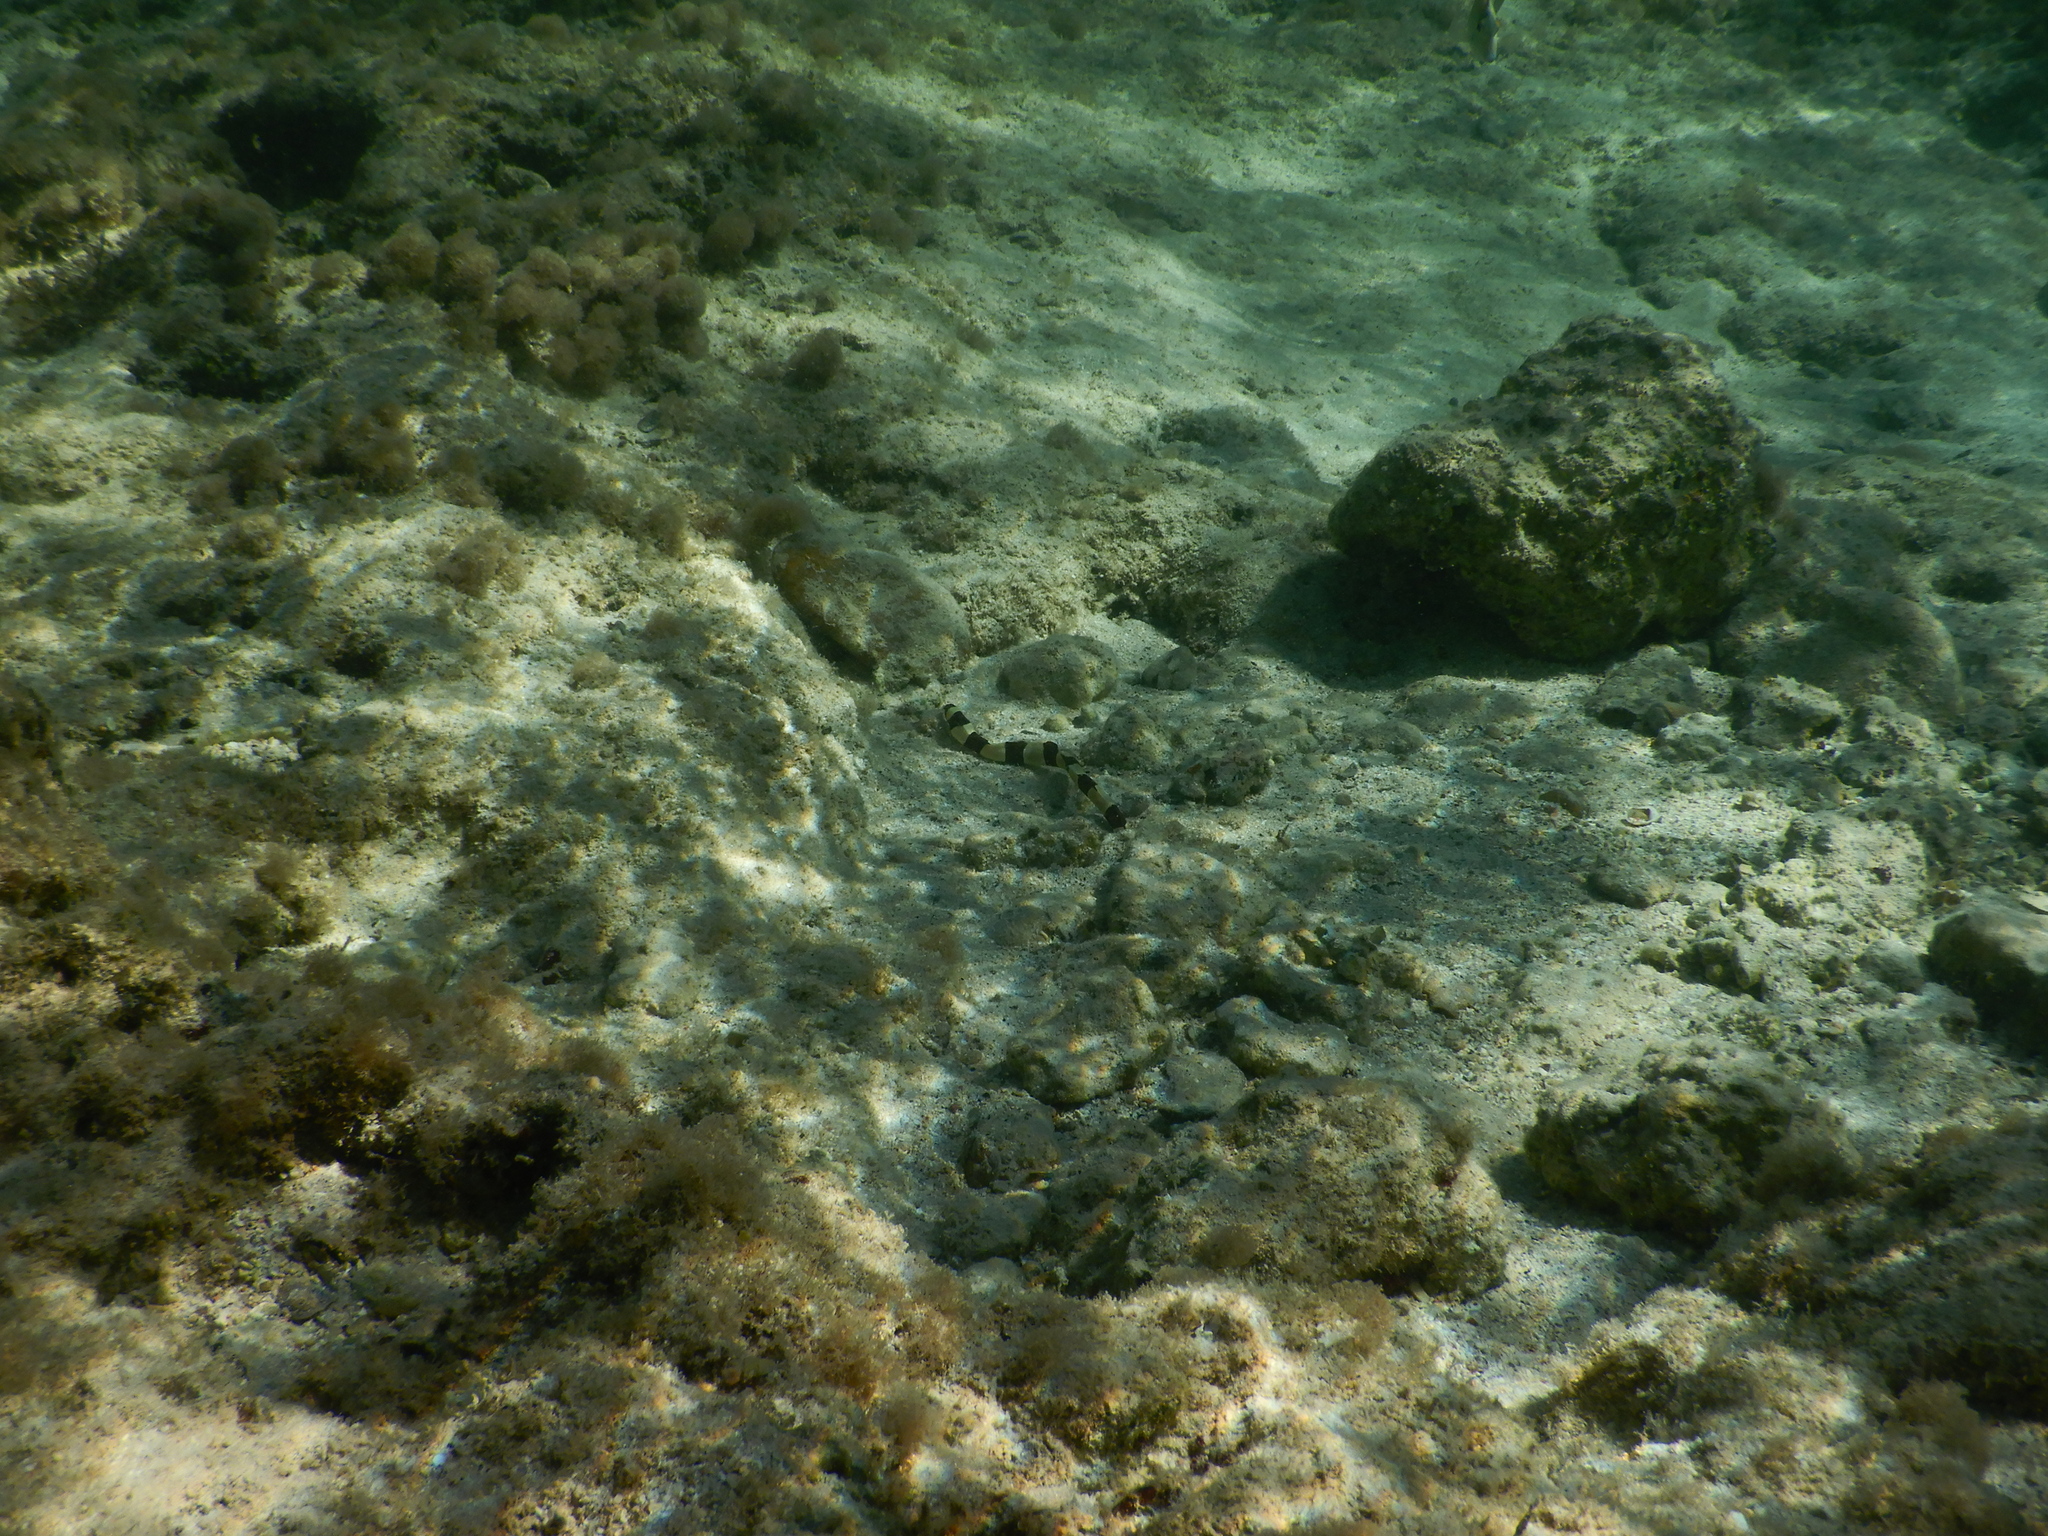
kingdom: Animalia
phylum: Chordata
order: Anguilliformes
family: Ophichthidae
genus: Myrichthys
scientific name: Myrichthys colubrinus
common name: Harlequin snake eel
